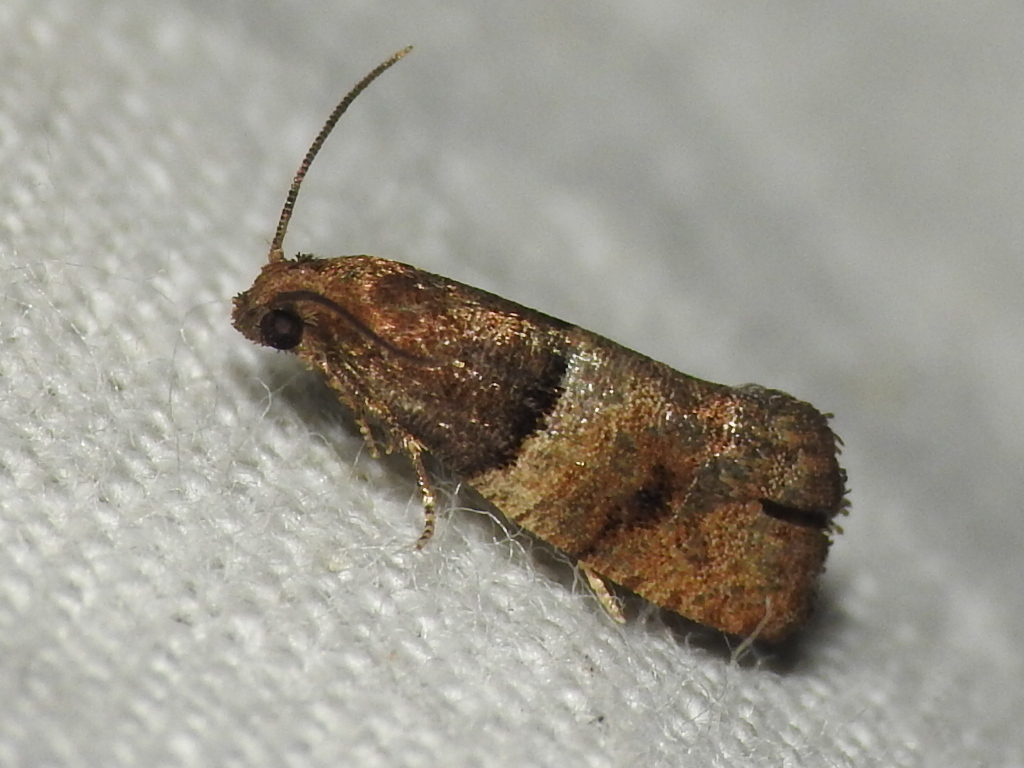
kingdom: Animalia
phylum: Arthropoda
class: Insecta
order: Lepidoptera
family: Tortricidae
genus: Larisa
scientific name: Larisa subsolana
